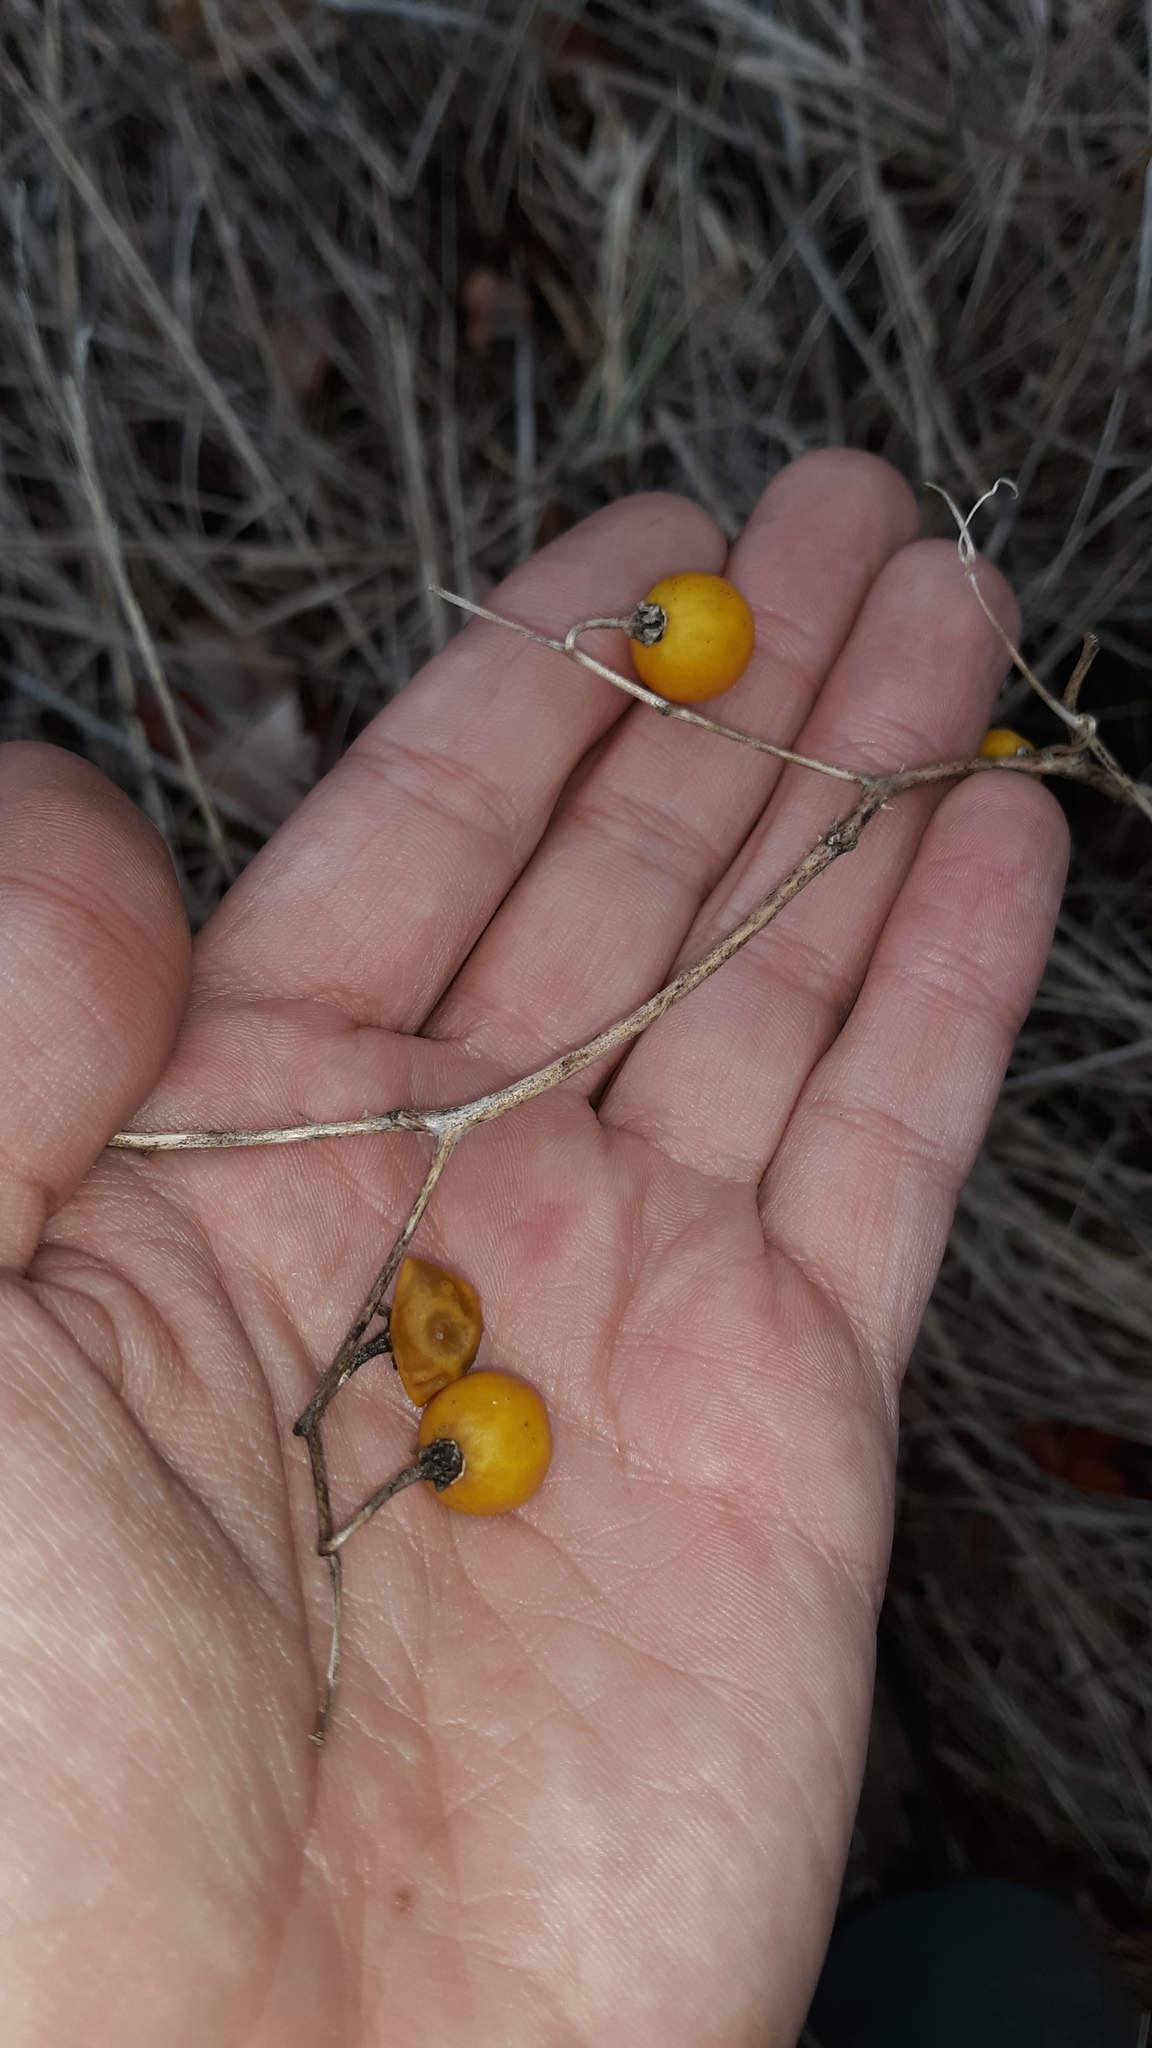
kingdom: Plantae
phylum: Tracheophyta
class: Magnoliopsida
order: Solanales
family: Solanaceae
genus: Solanum
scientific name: Solanum carolinense
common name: Horse-nettle
